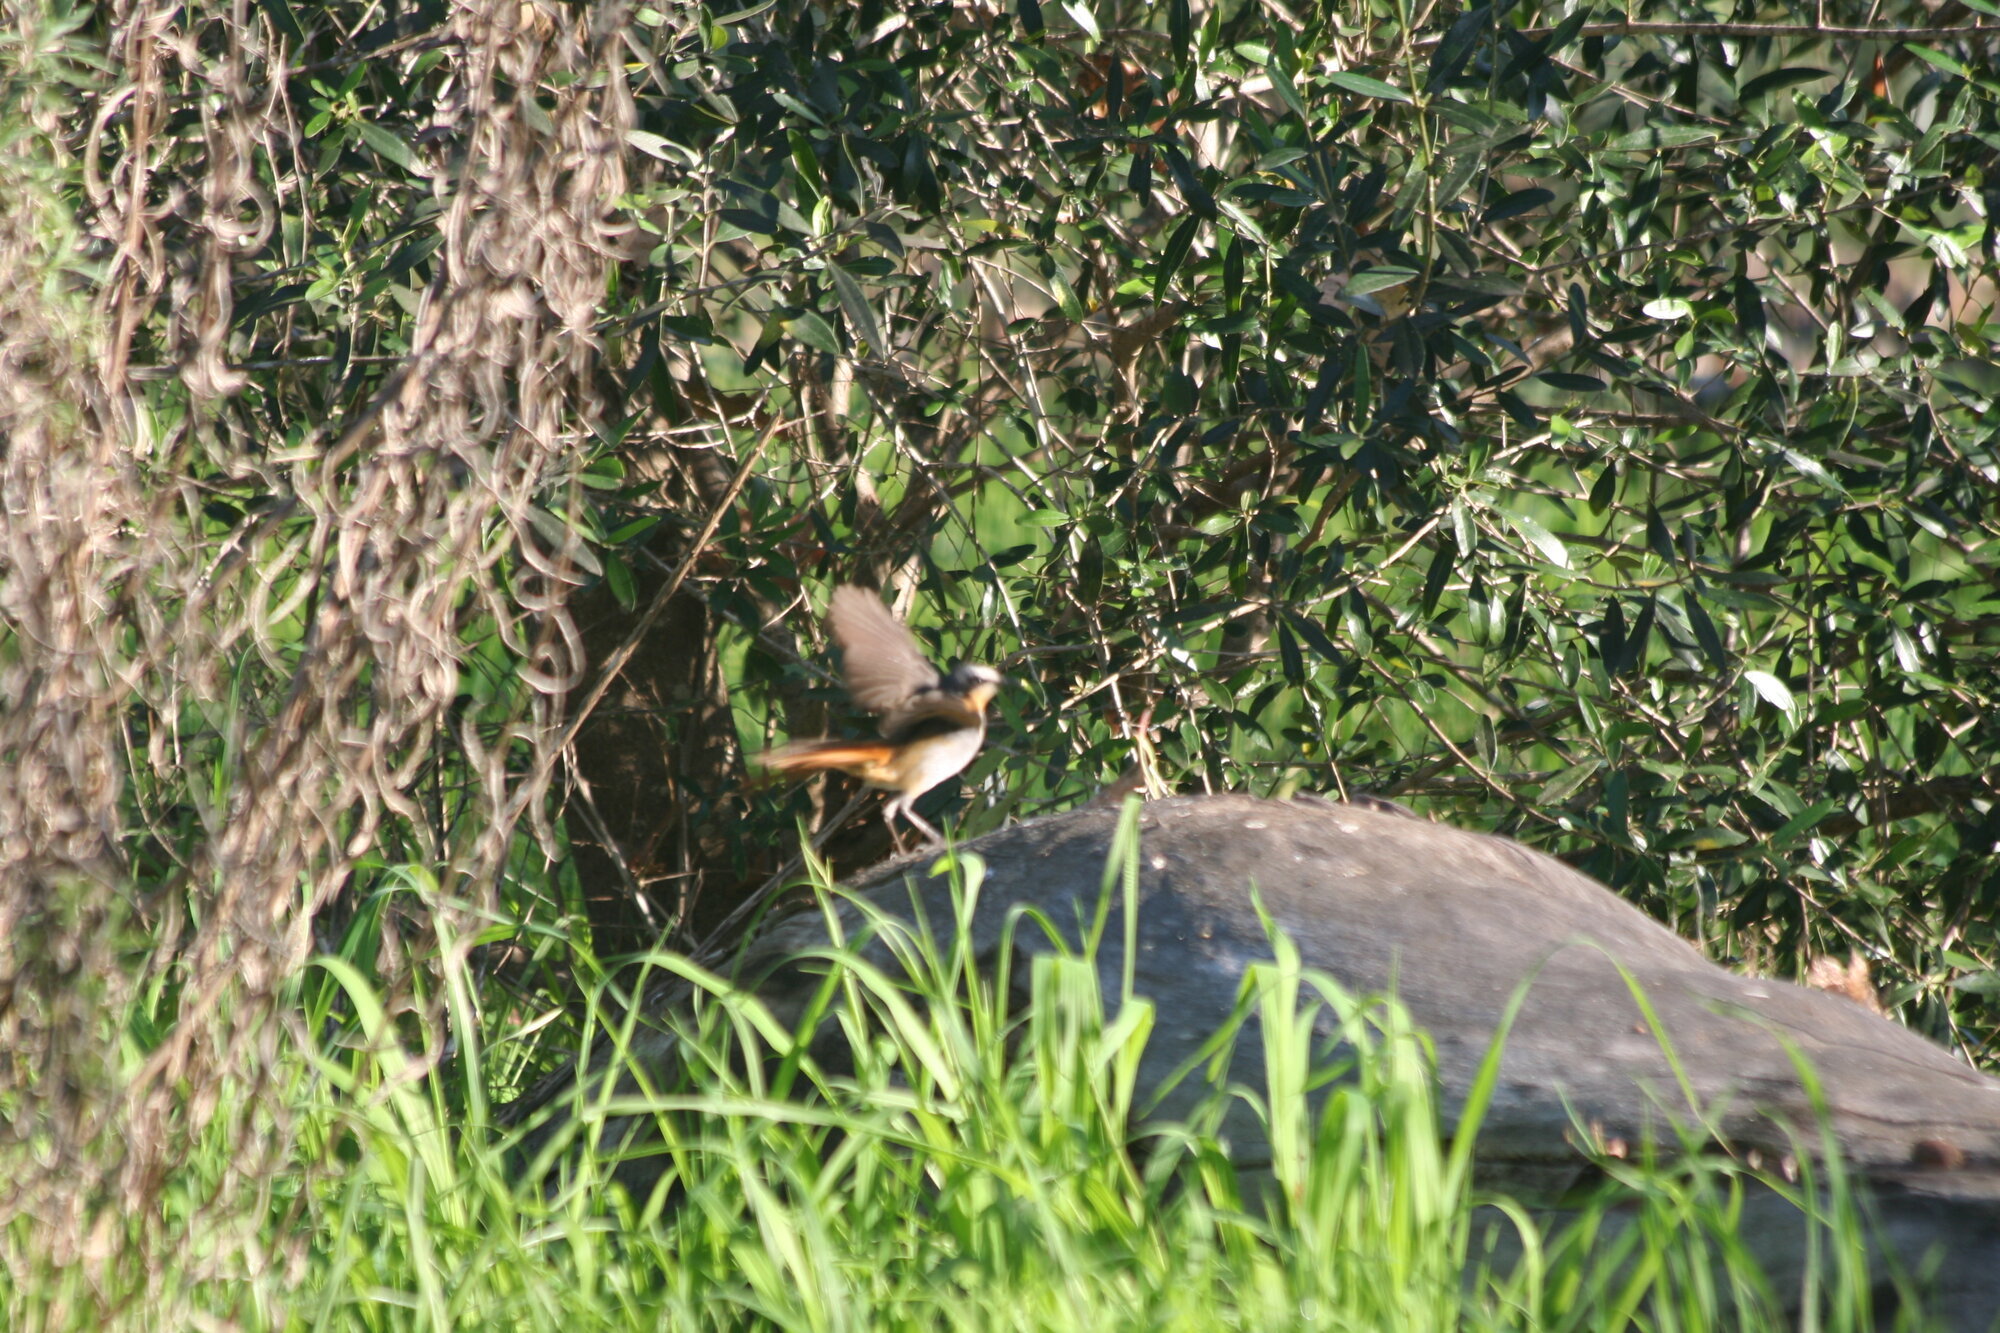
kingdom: Animalia
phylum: Chordata
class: Aves
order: Passeriformes
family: Muscicapidae
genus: Cossypha
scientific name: Cossypha caffra
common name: Cape robin-chat
